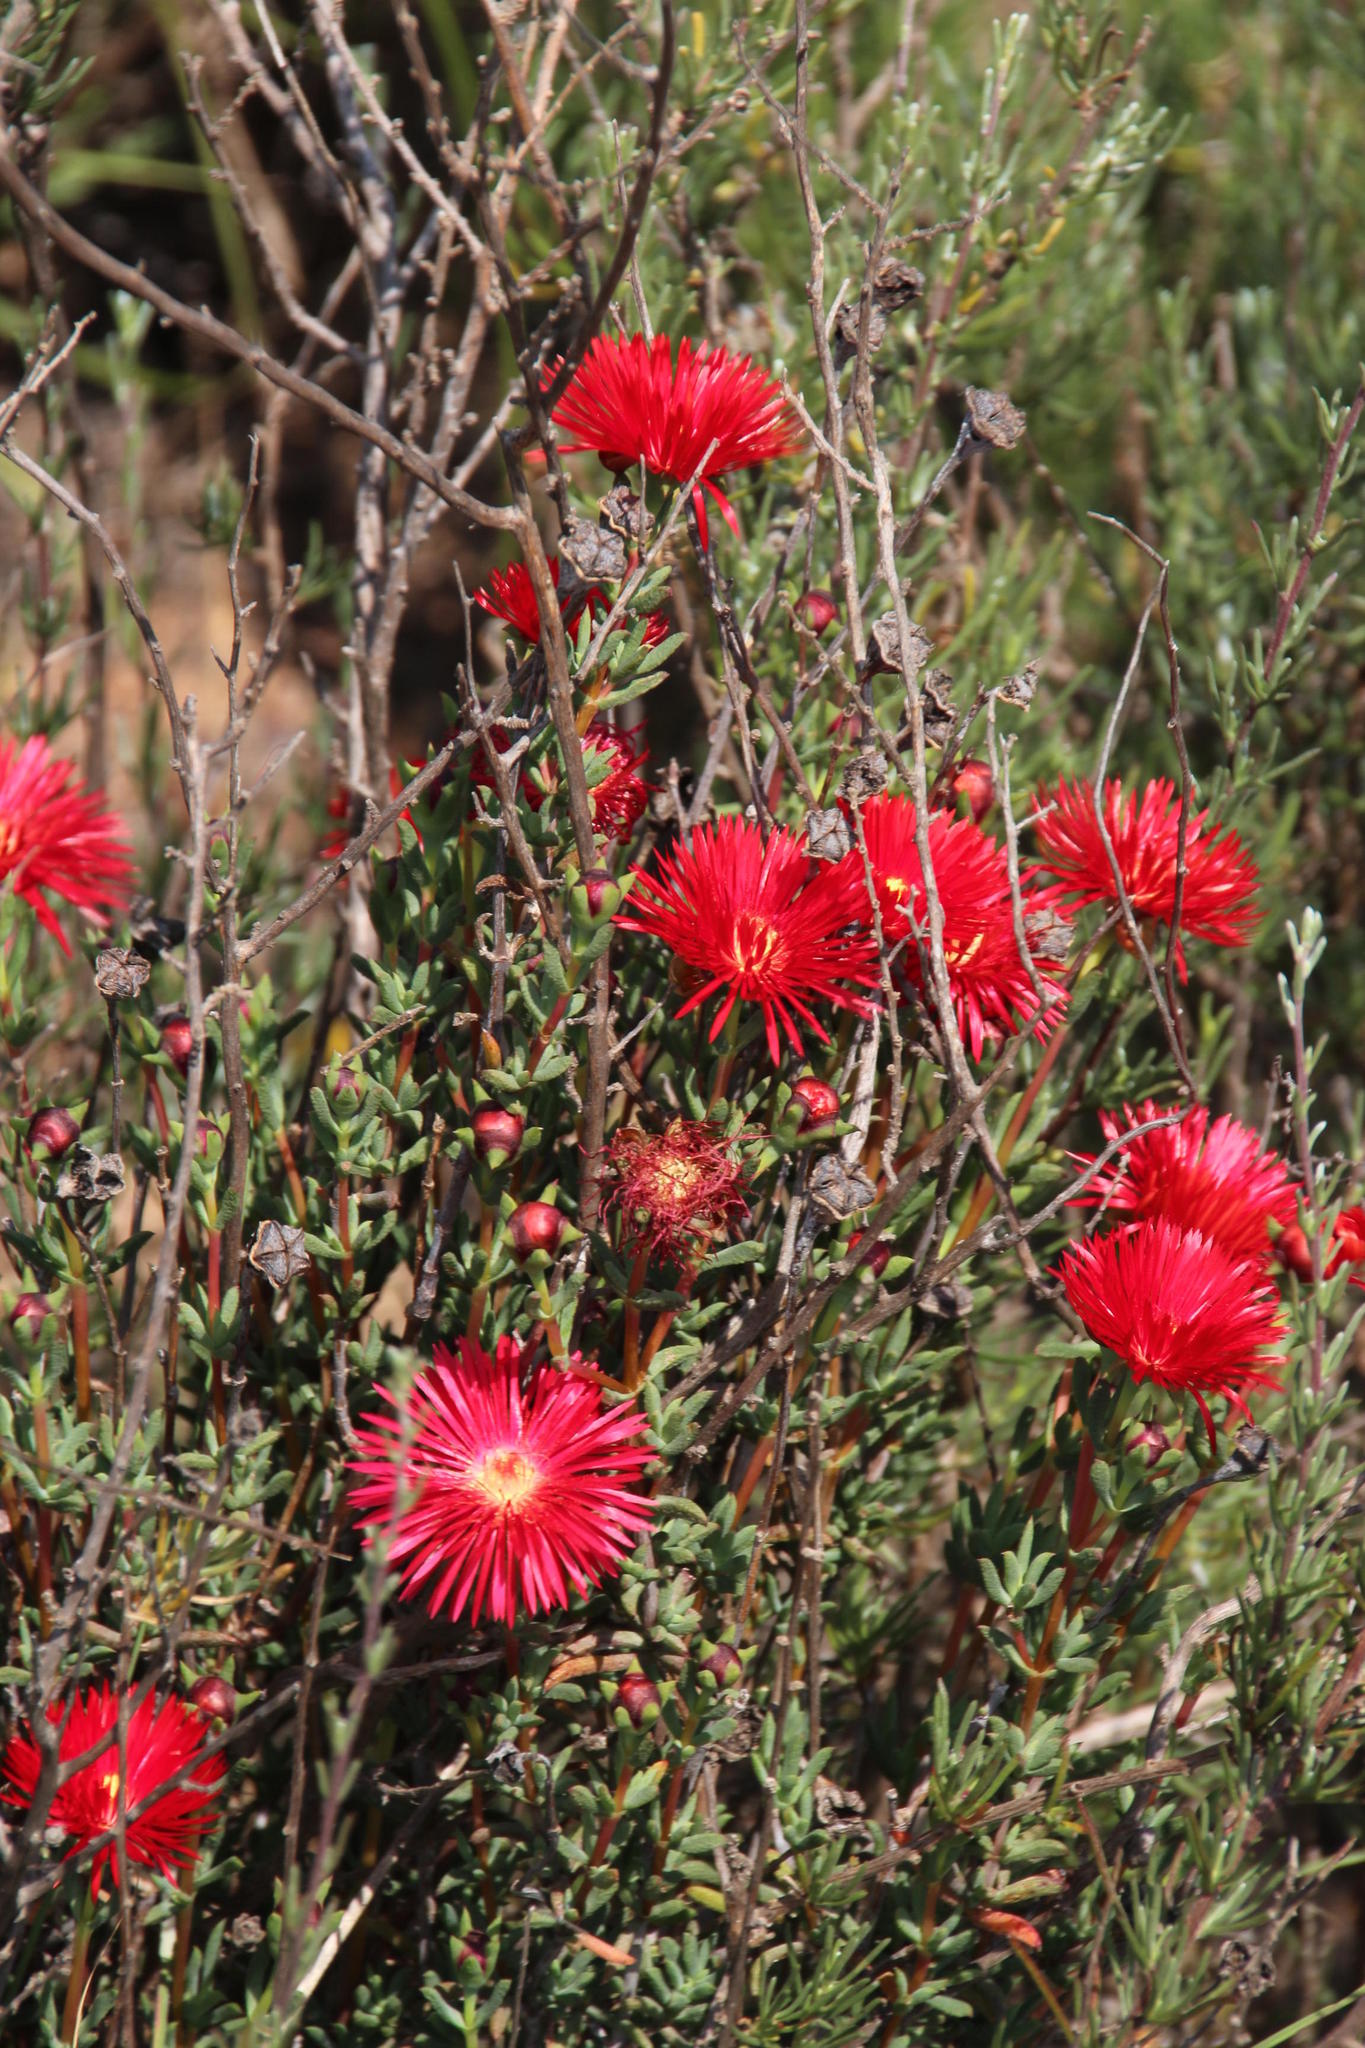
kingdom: Plantae
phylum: Tracheophyta
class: Magnoliopsida
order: Caryophyllales
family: Aizoaceae
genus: Lampranthus
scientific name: Lampranthus coccineus
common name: Redflush
